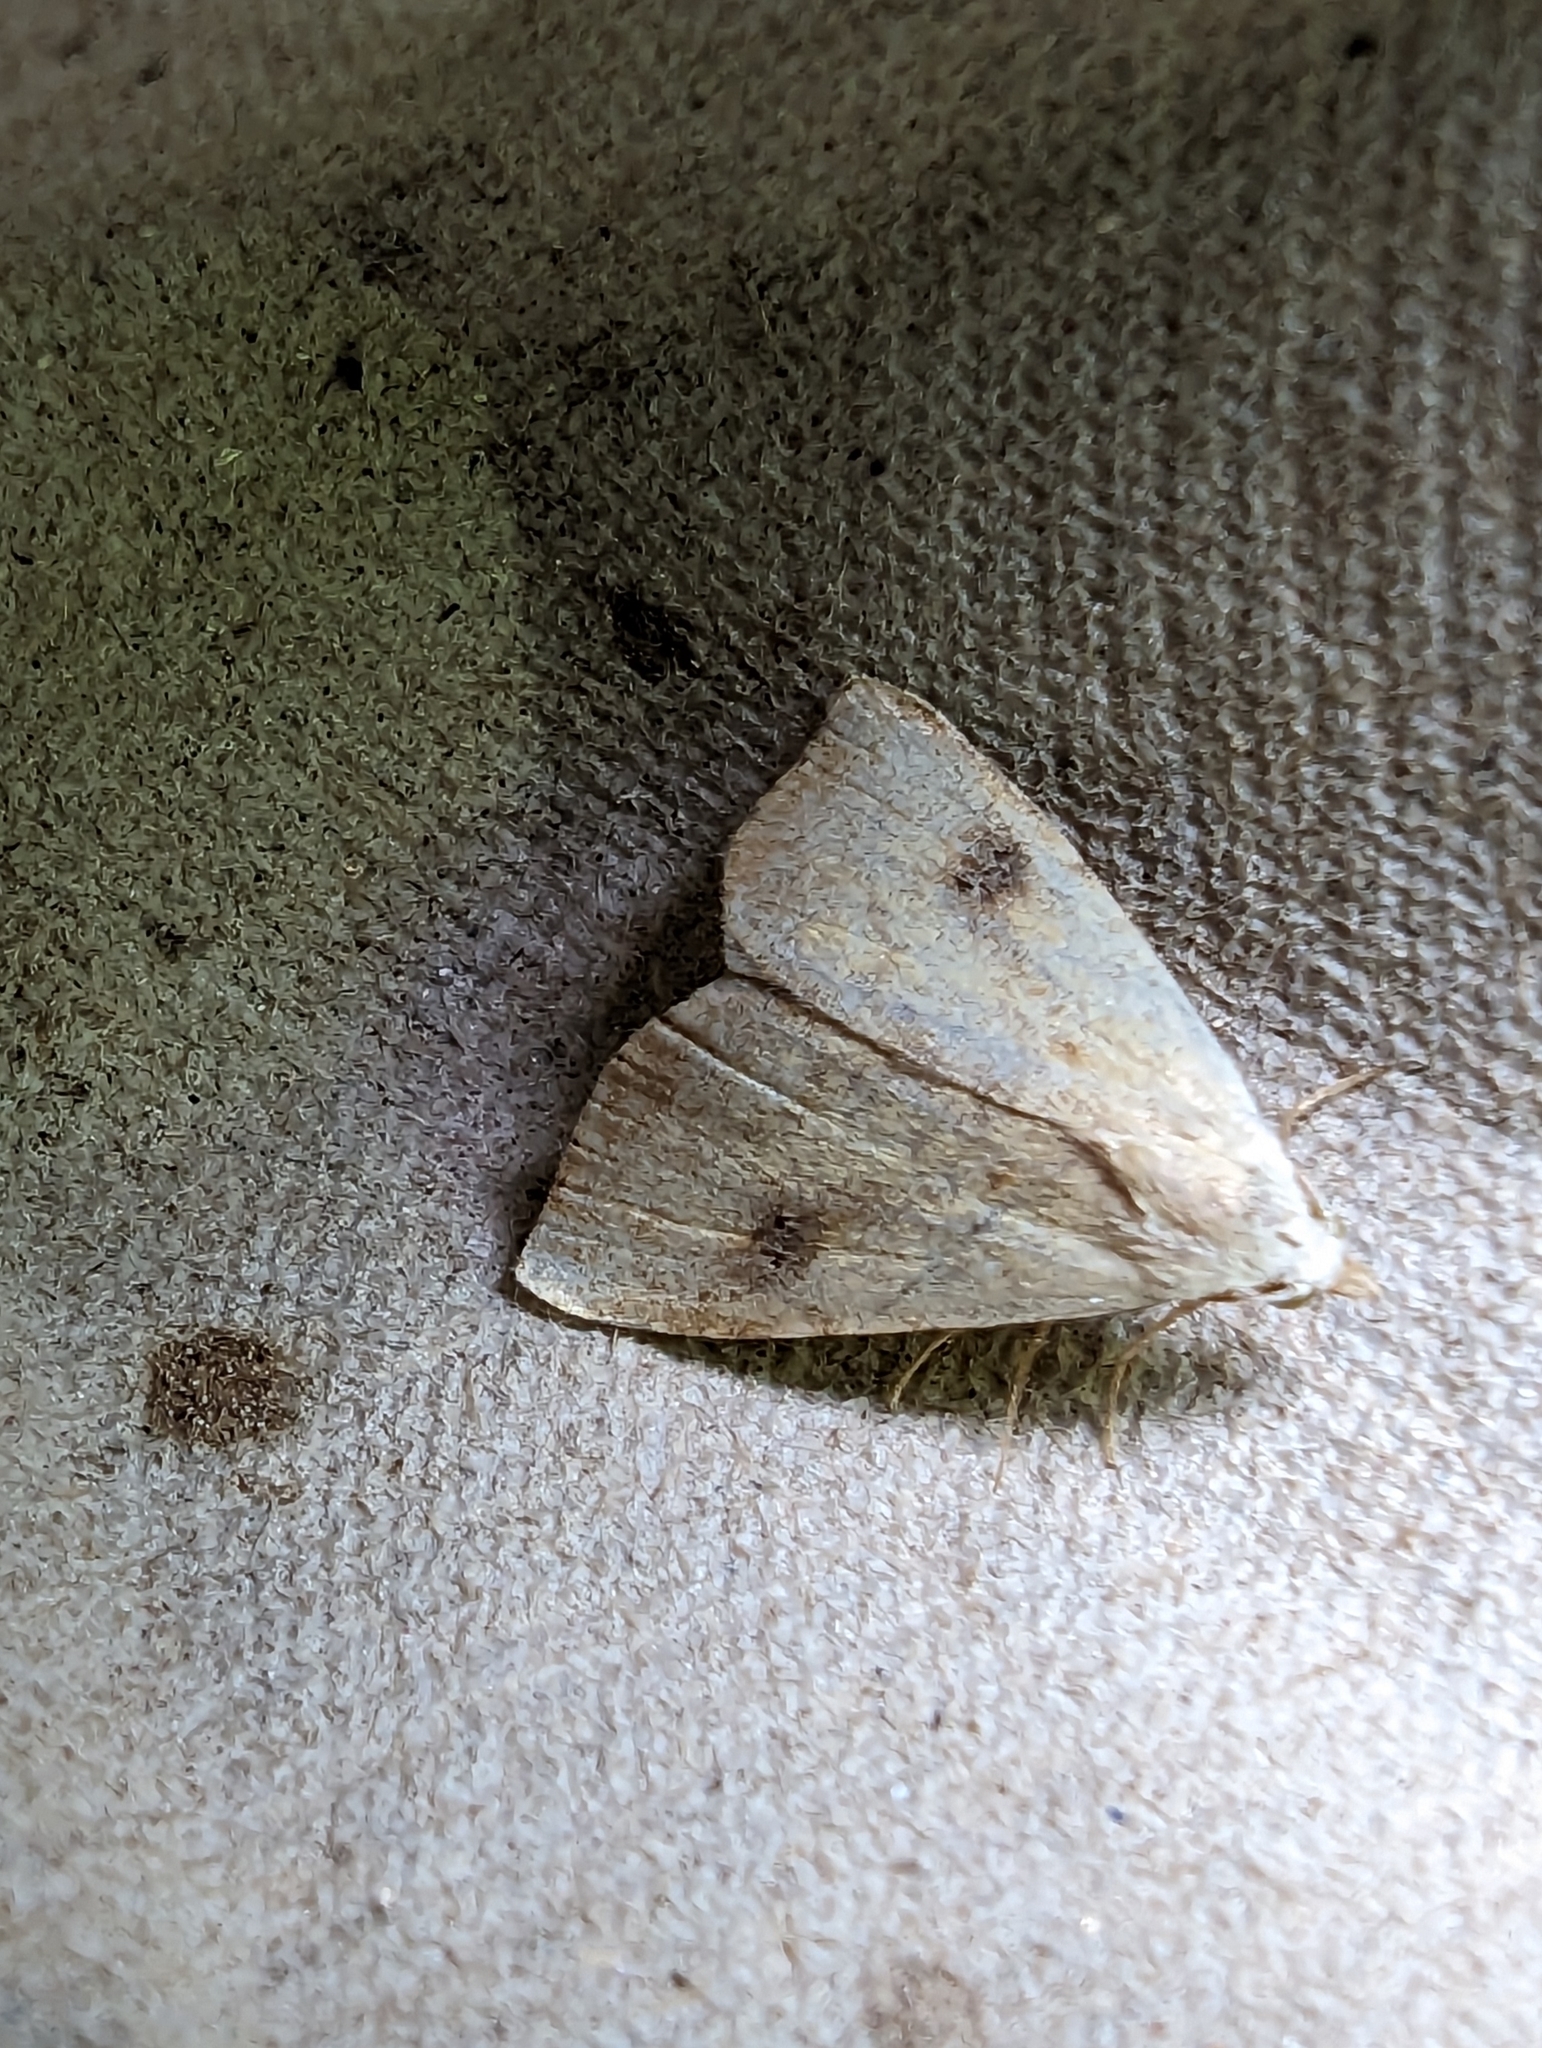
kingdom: Animalia
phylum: Arthropoda
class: Insecta
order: Lepidoptera
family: Erebidae
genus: Rivula
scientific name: Rivula sericealis
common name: Straw dot
